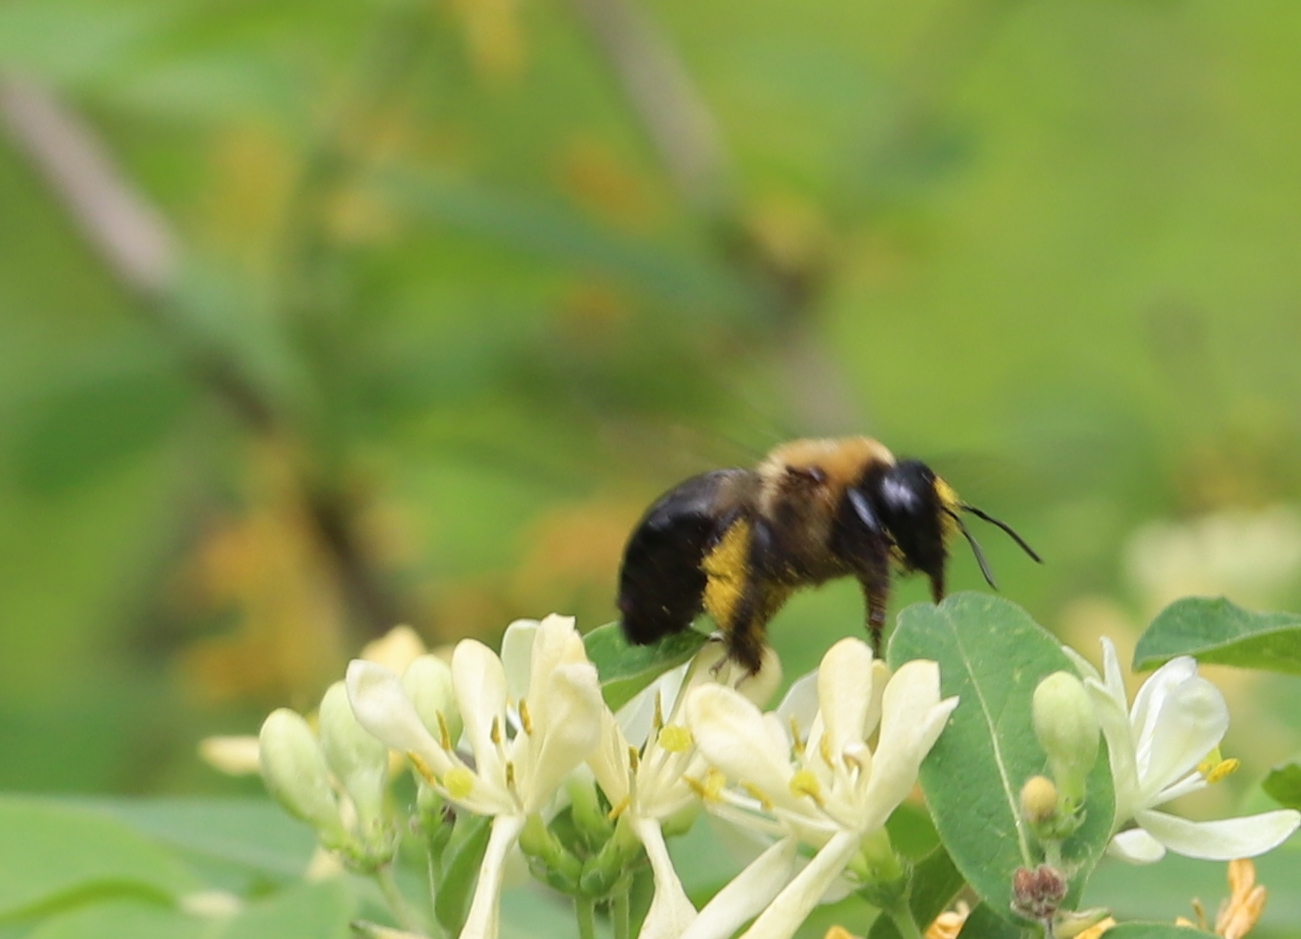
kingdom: Animalia
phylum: Arthropoda
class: Insecta
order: Hymenoptera
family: Apidae
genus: Xylocopa
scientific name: Xylocopa virginica
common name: Carpenter bee
